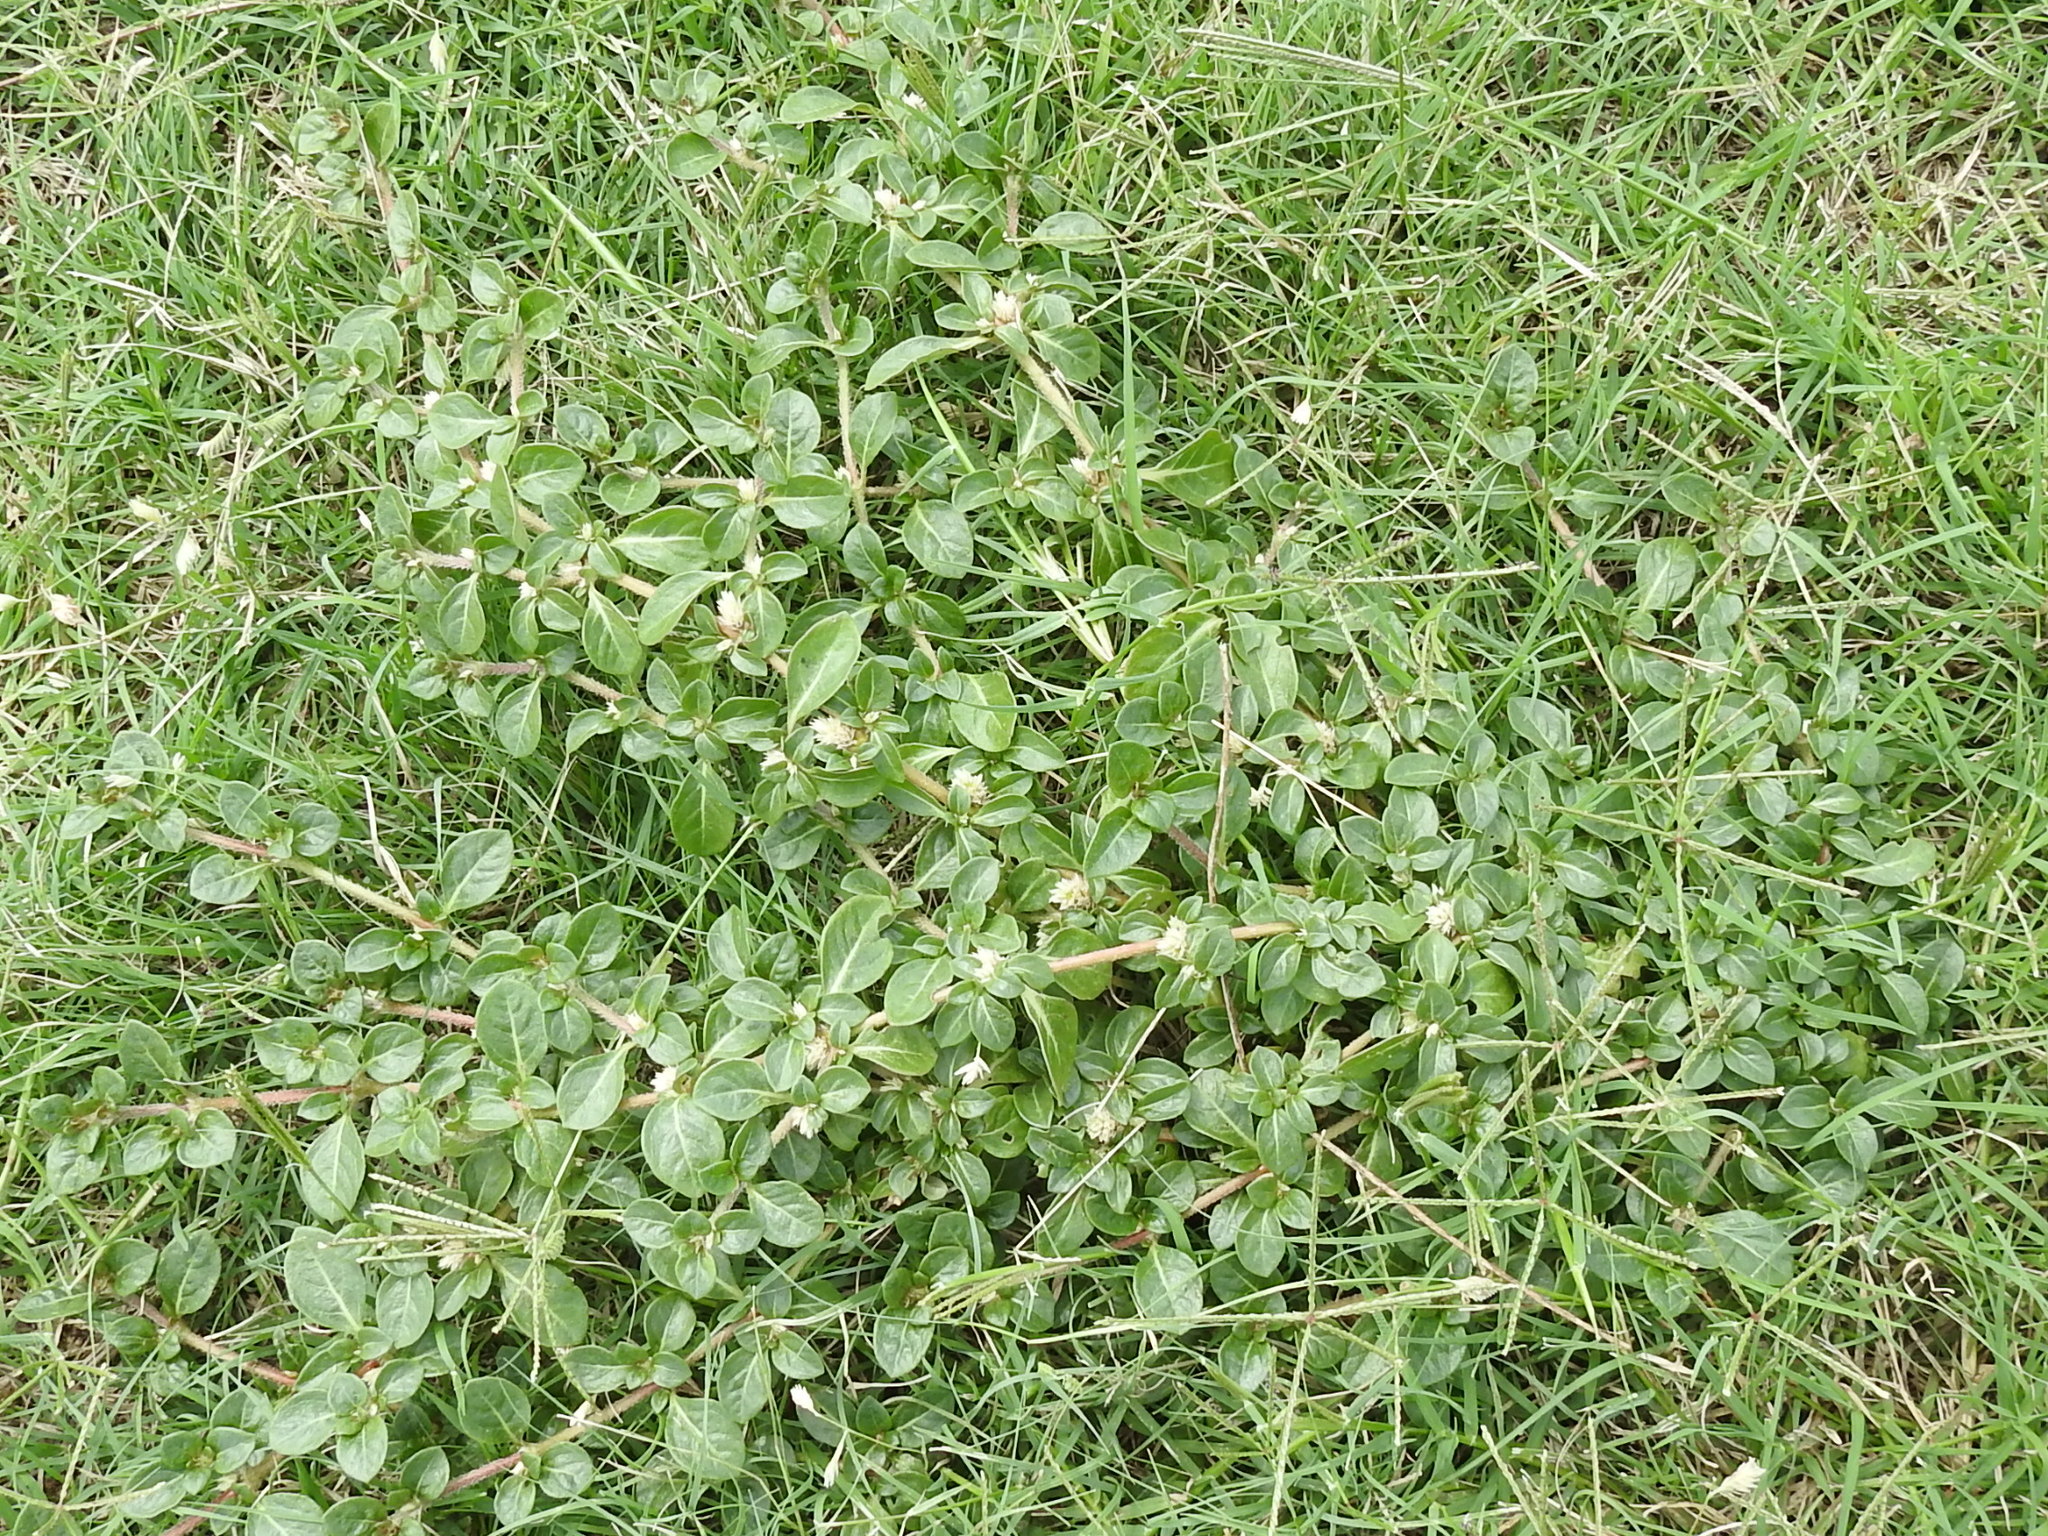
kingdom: Plantae
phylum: Tracheophyta
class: Magnoliopsida
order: Caryophyllales
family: Amaranthaceae
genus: Alternanthera
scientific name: Alternanthera caracasana
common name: Washerwoman
